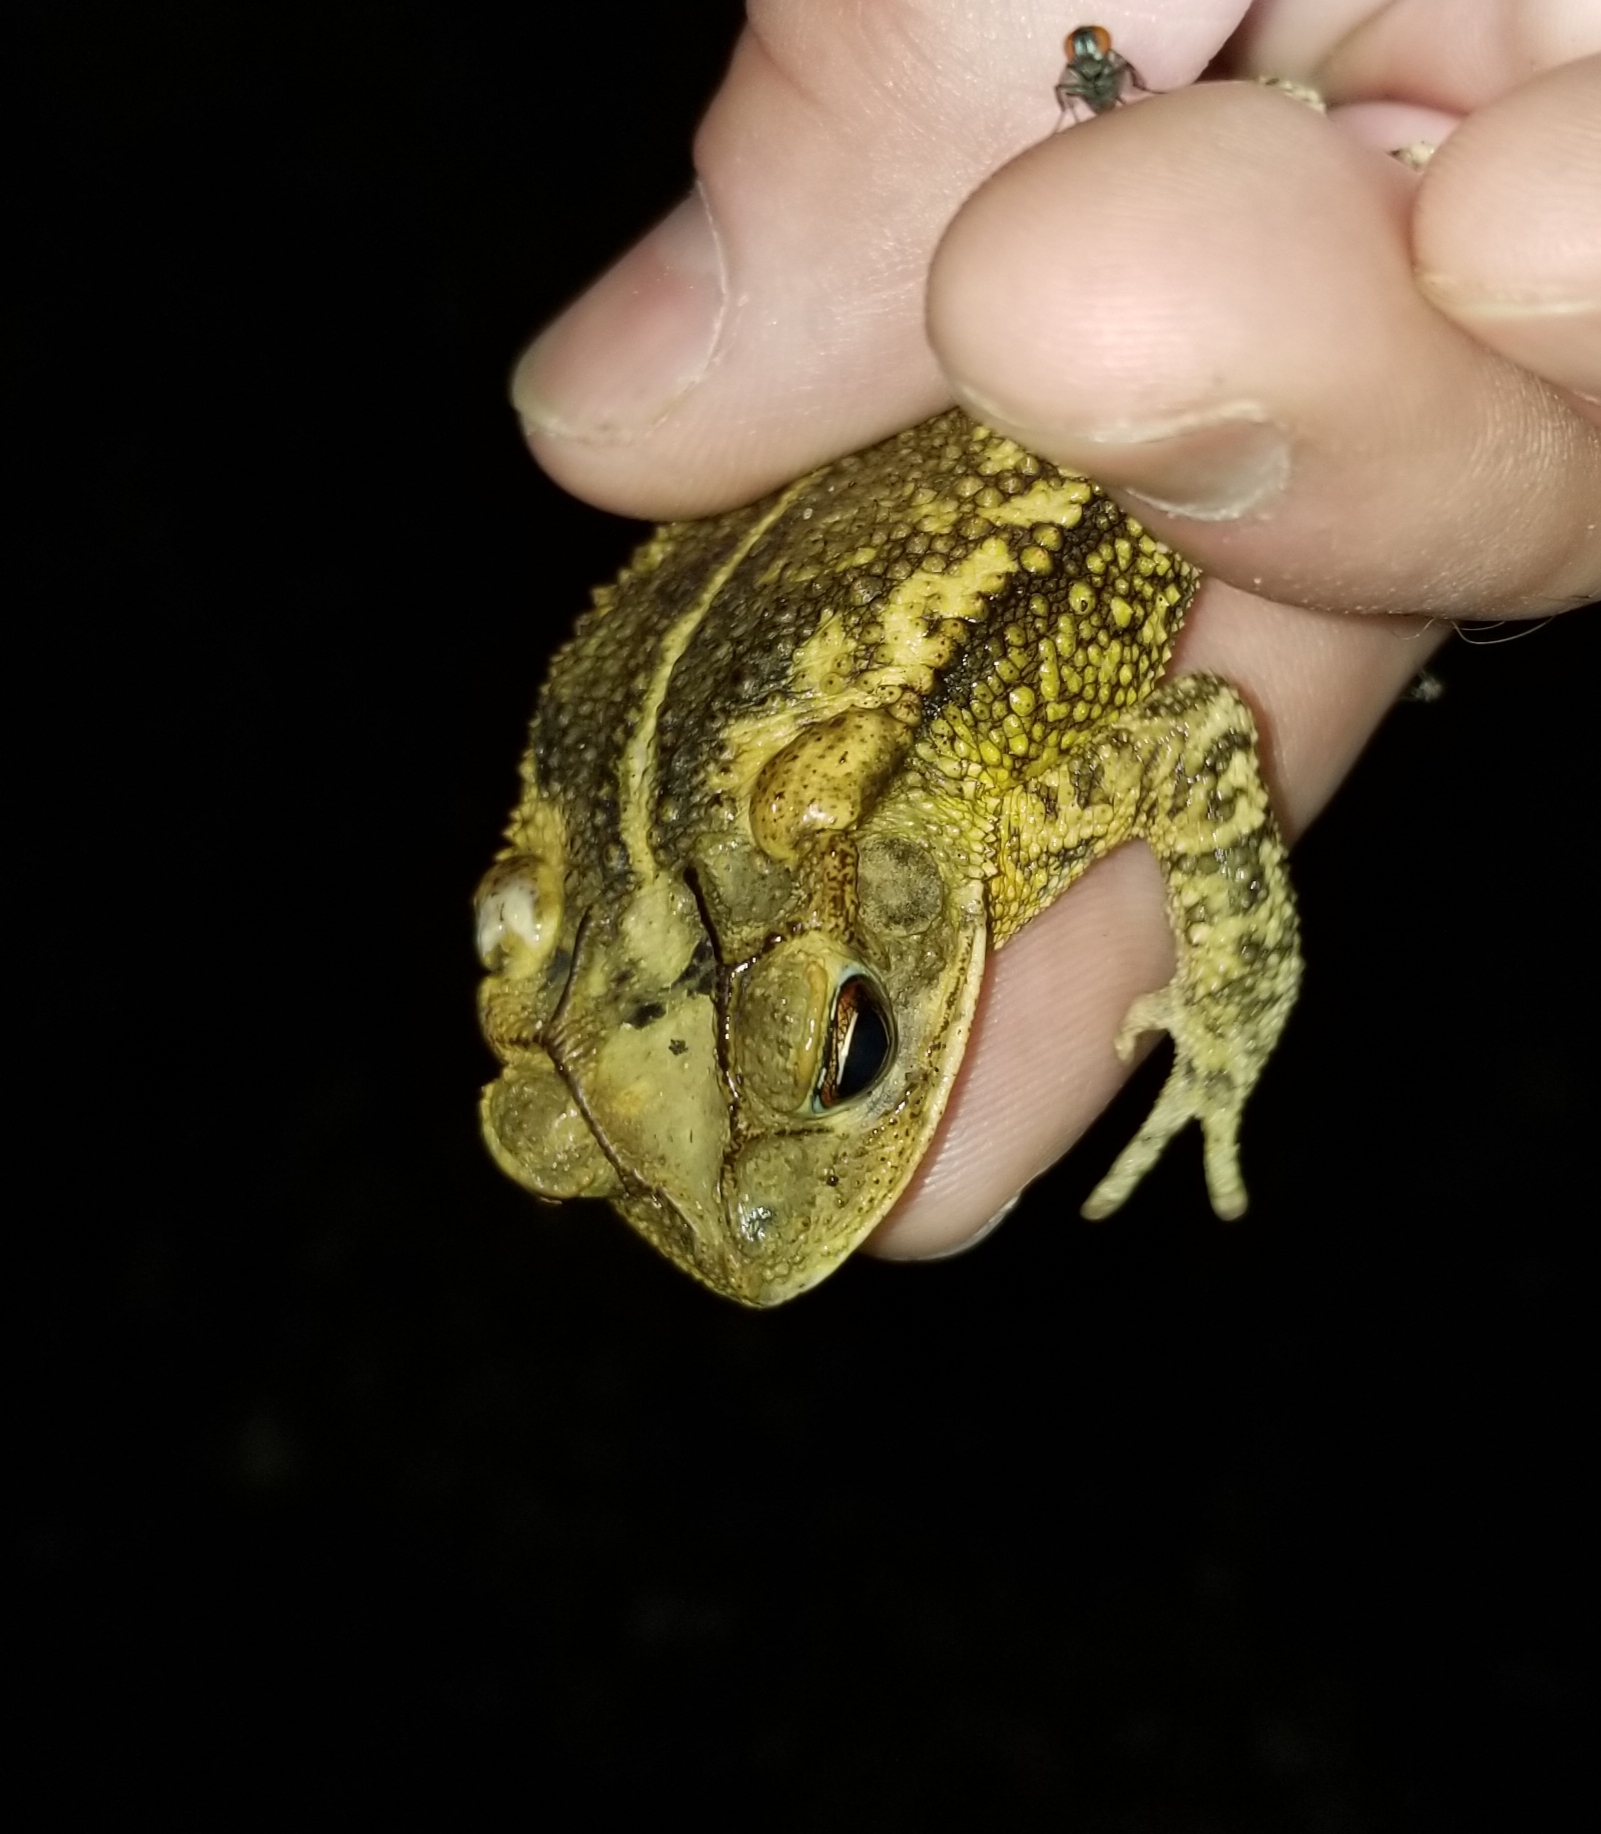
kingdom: Animalia
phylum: Chordata
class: Amphibia
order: Anura
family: Bufonidae
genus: Incilius
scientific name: Incilius nebulifer
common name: Gulf coast toad
